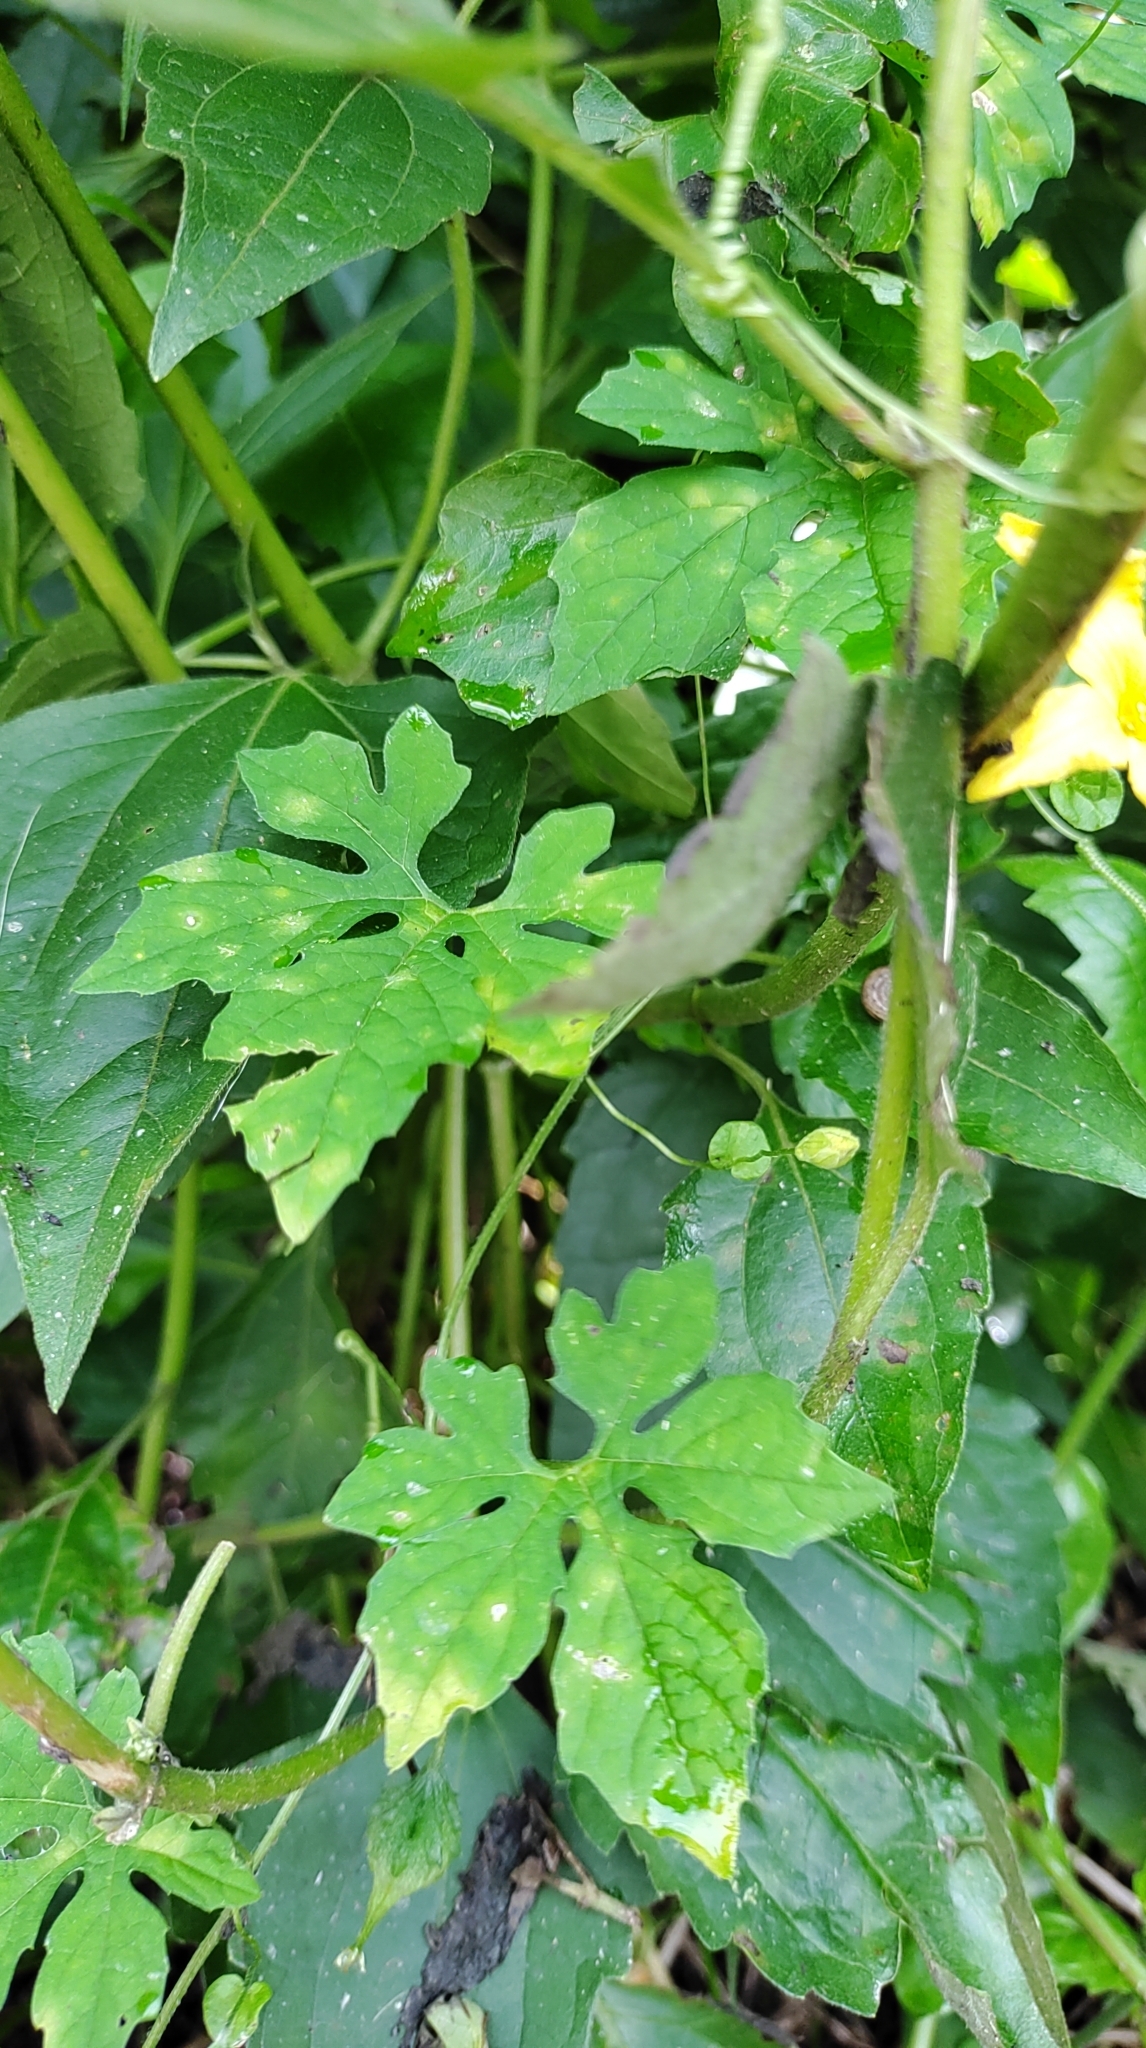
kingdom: Plantae
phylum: Tracheophyta
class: Magnoliopsida
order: Cucurbitales
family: Cucurbitaceae
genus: Momordica
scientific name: Momordica charantia
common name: Balsampear
